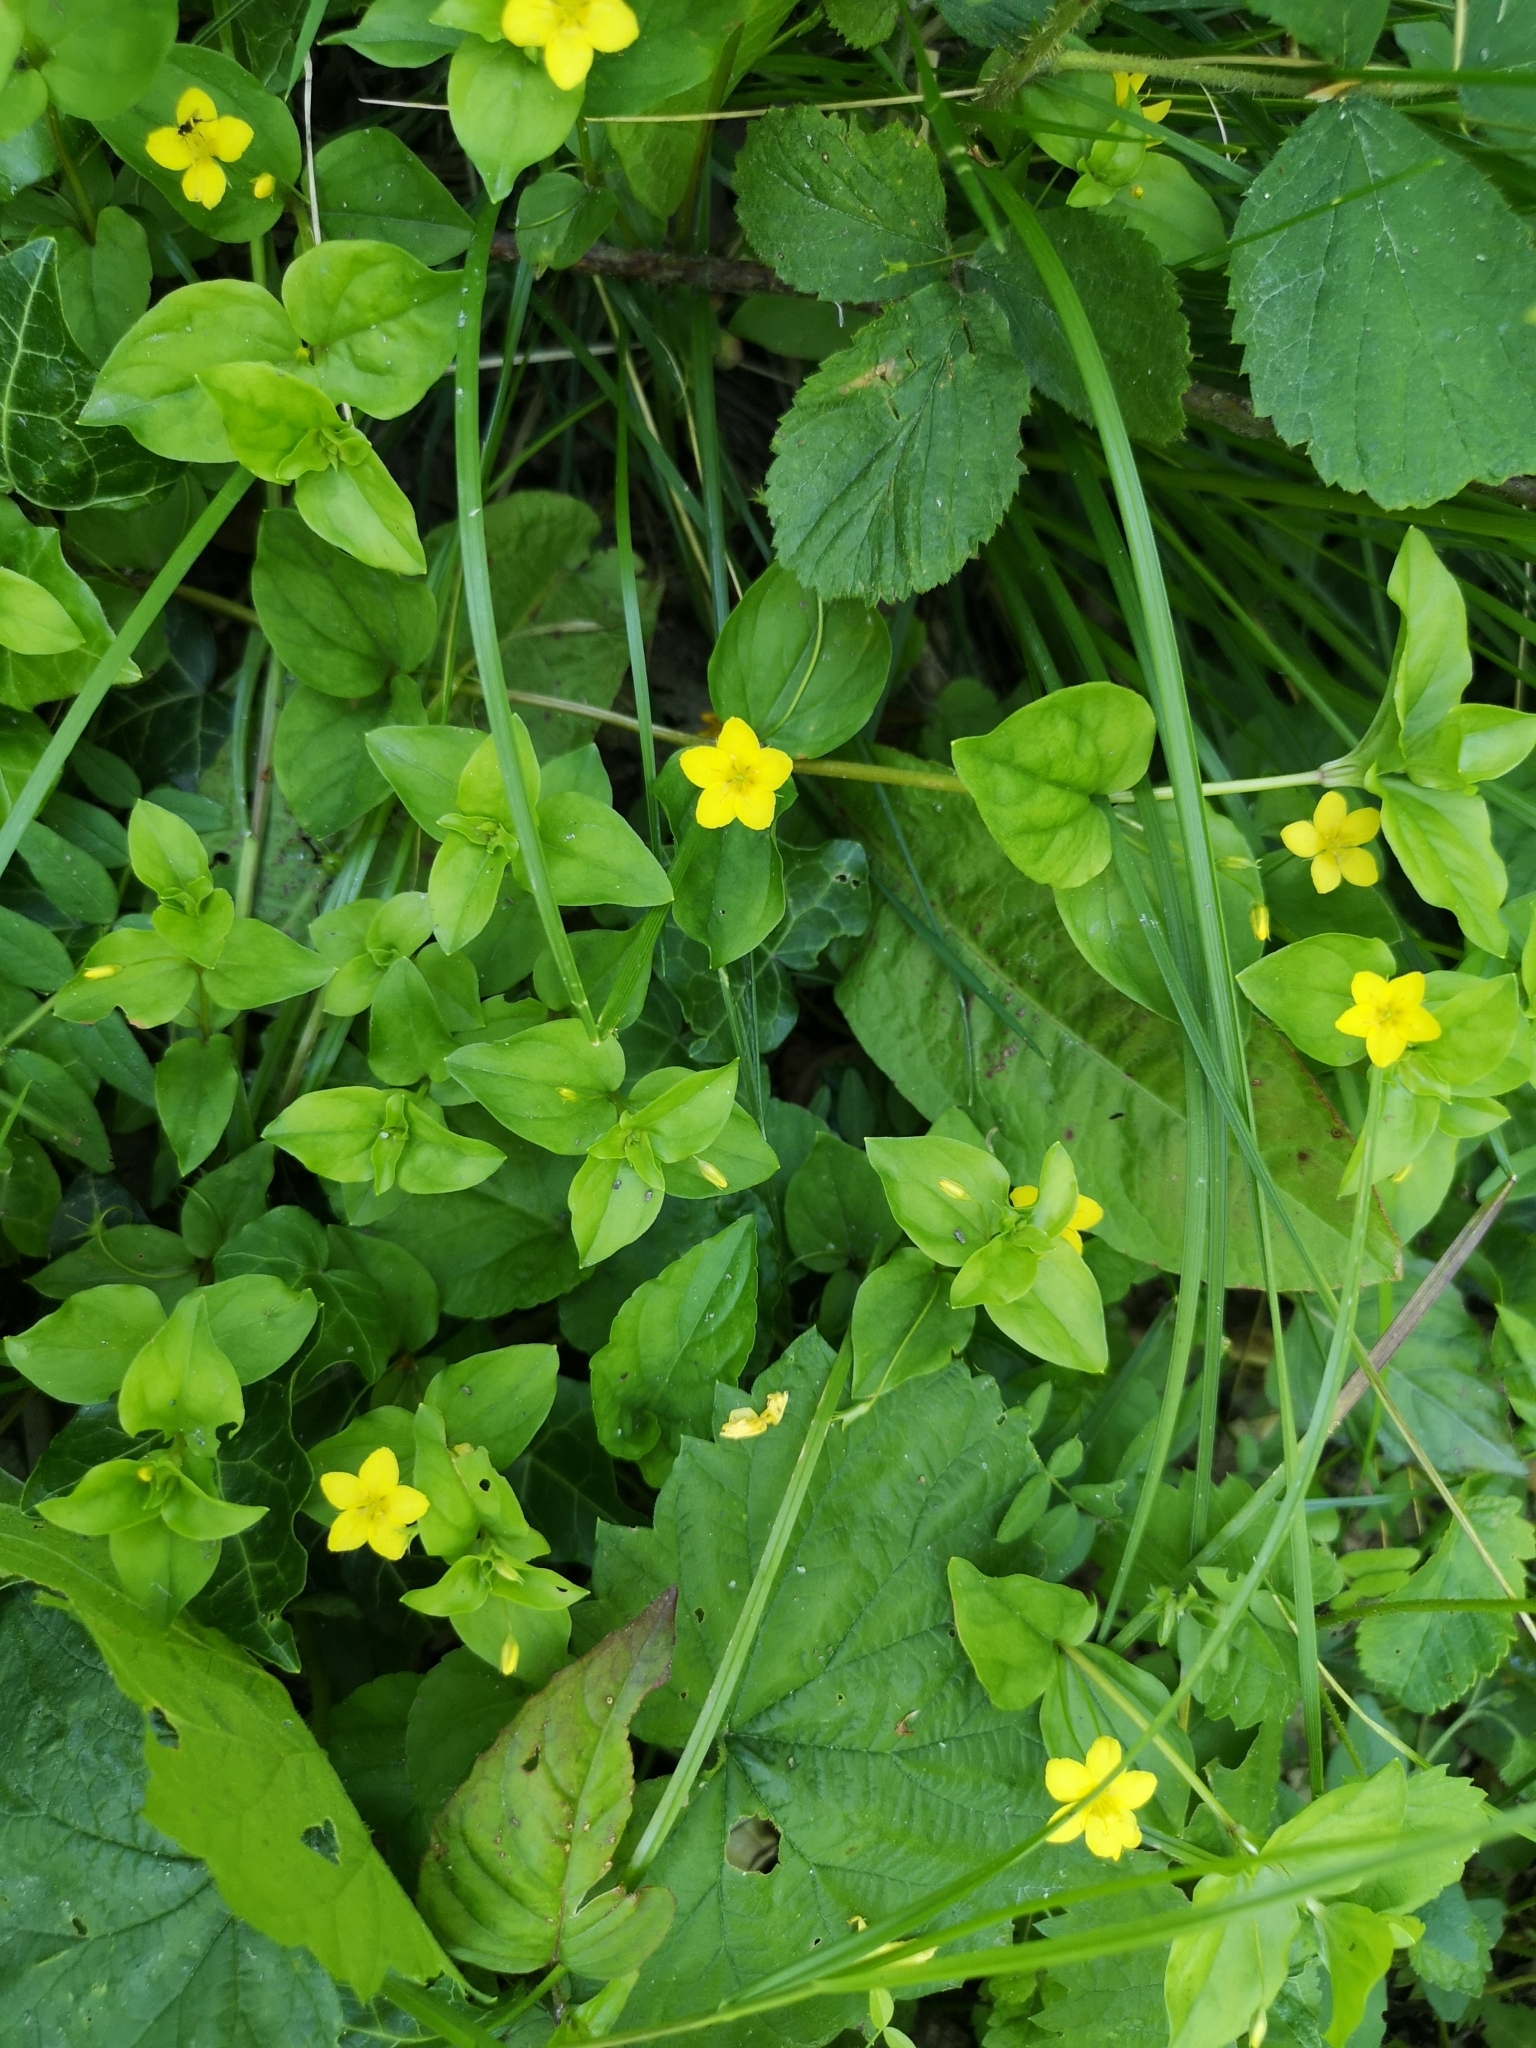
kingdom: Plantae
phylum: Tracheophyta
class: Magnoliopsida
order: Ericales
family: Primulaceae
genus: Lysimachia
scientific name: Lysimachia nemorum
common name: Yellow pimpernel
